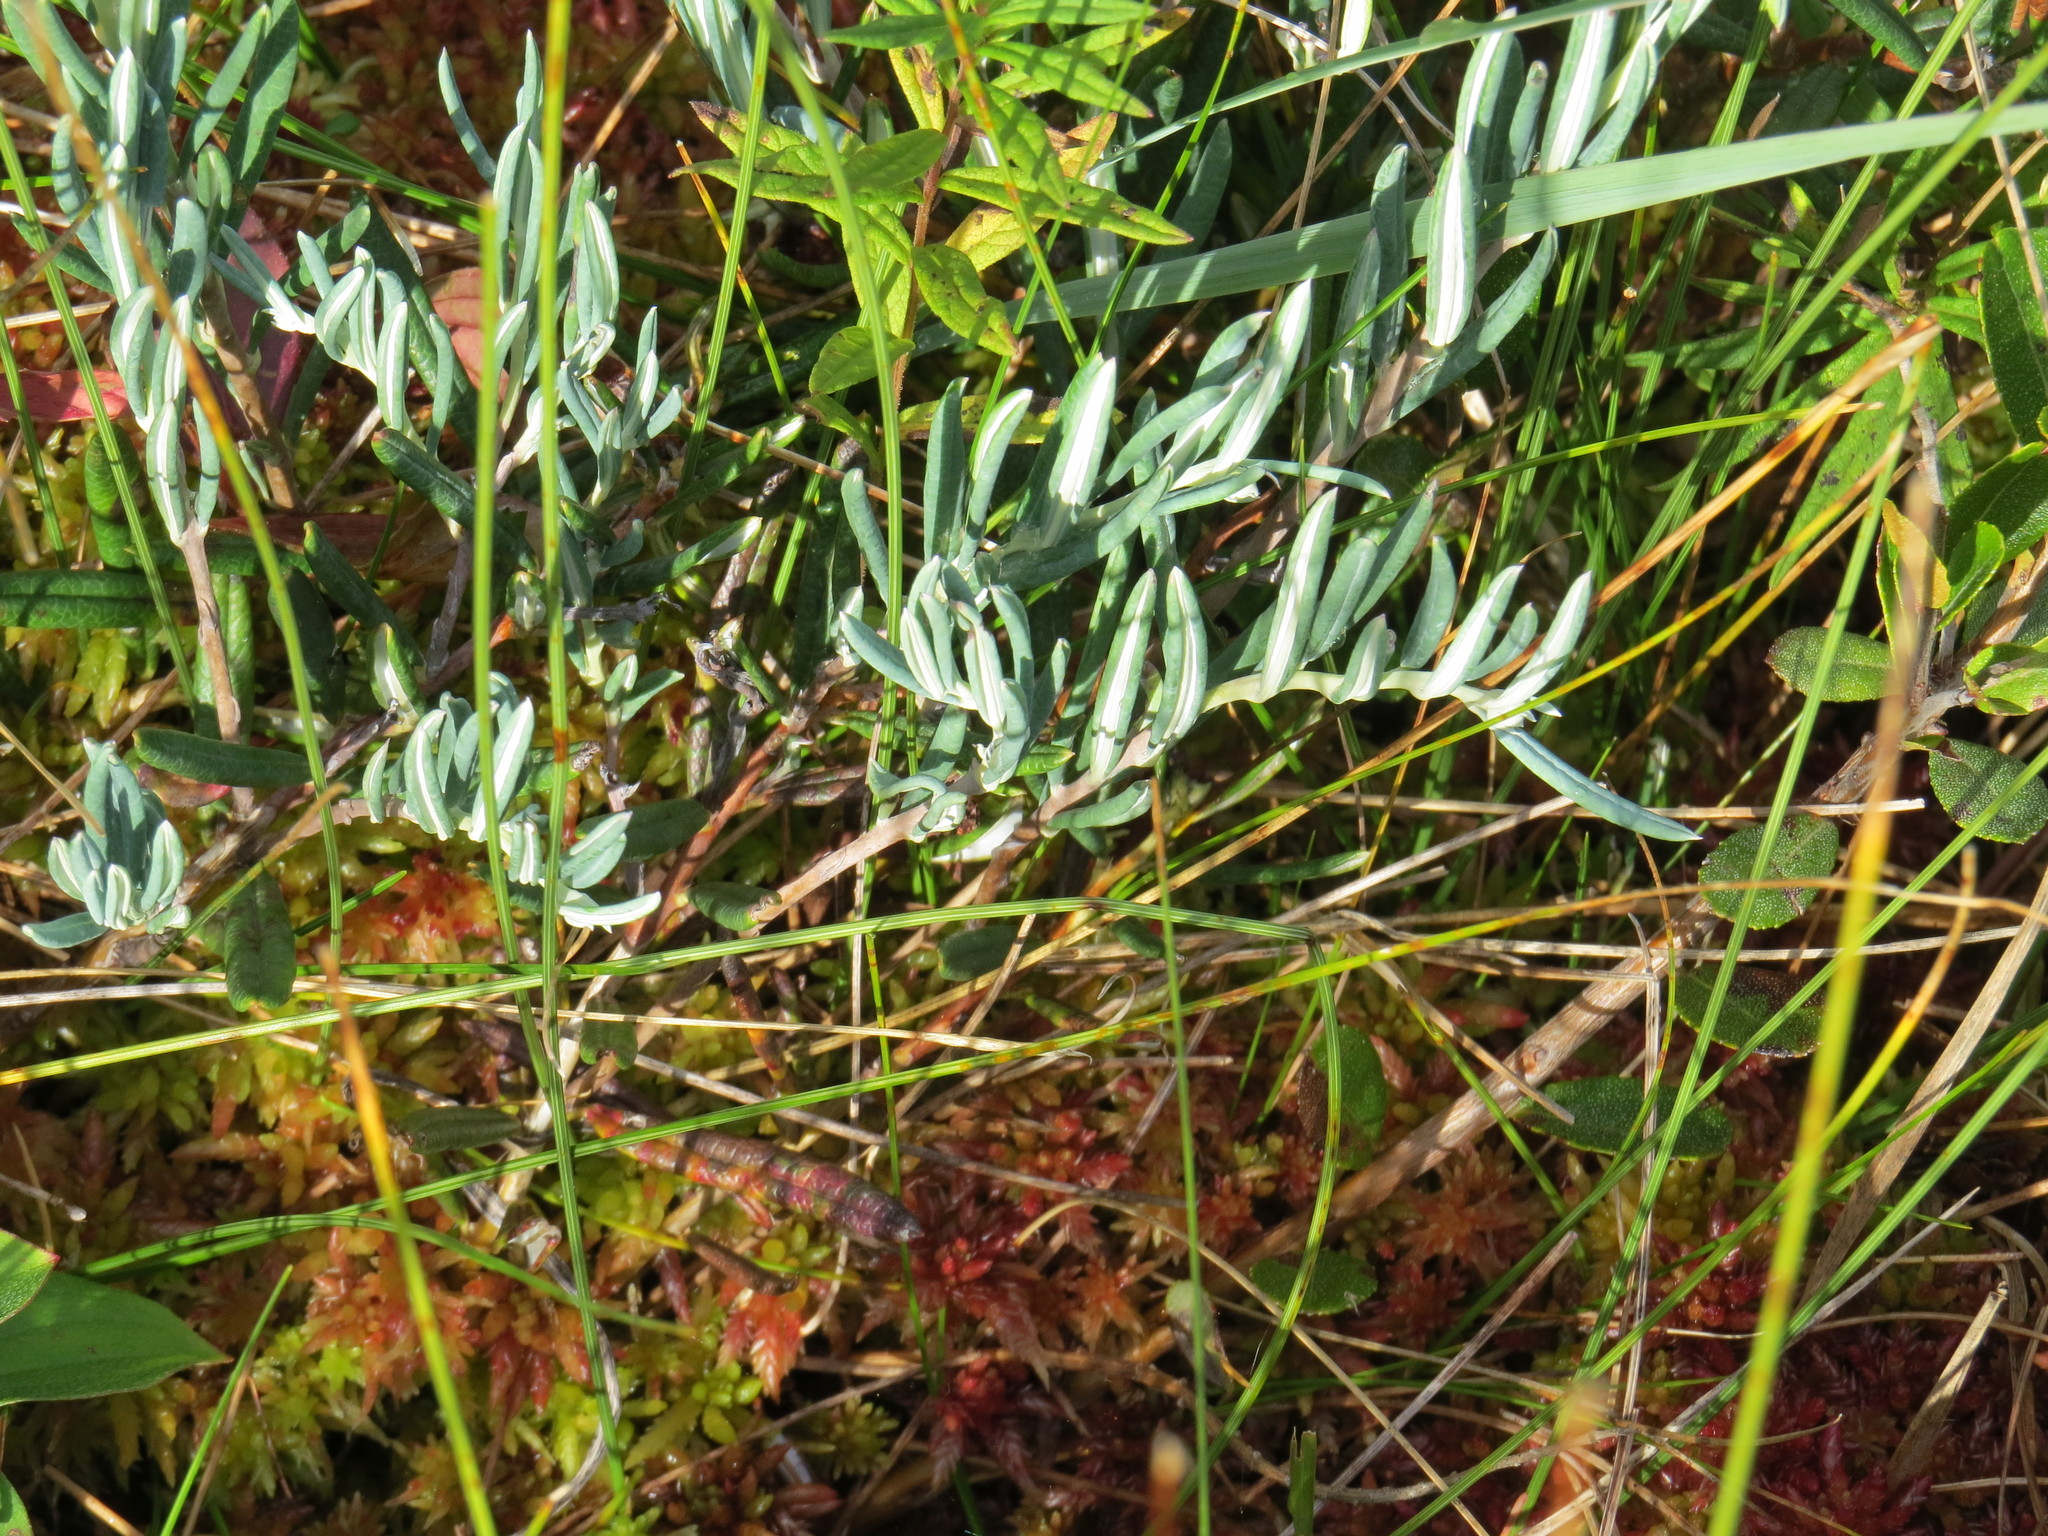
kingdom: Plantae
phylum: Tracheophyta
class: Magnoliopsida
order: Ericales
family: Ericaceae
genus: Andromeda
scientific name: Andromeda polifolia
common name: Bog-rosemary
